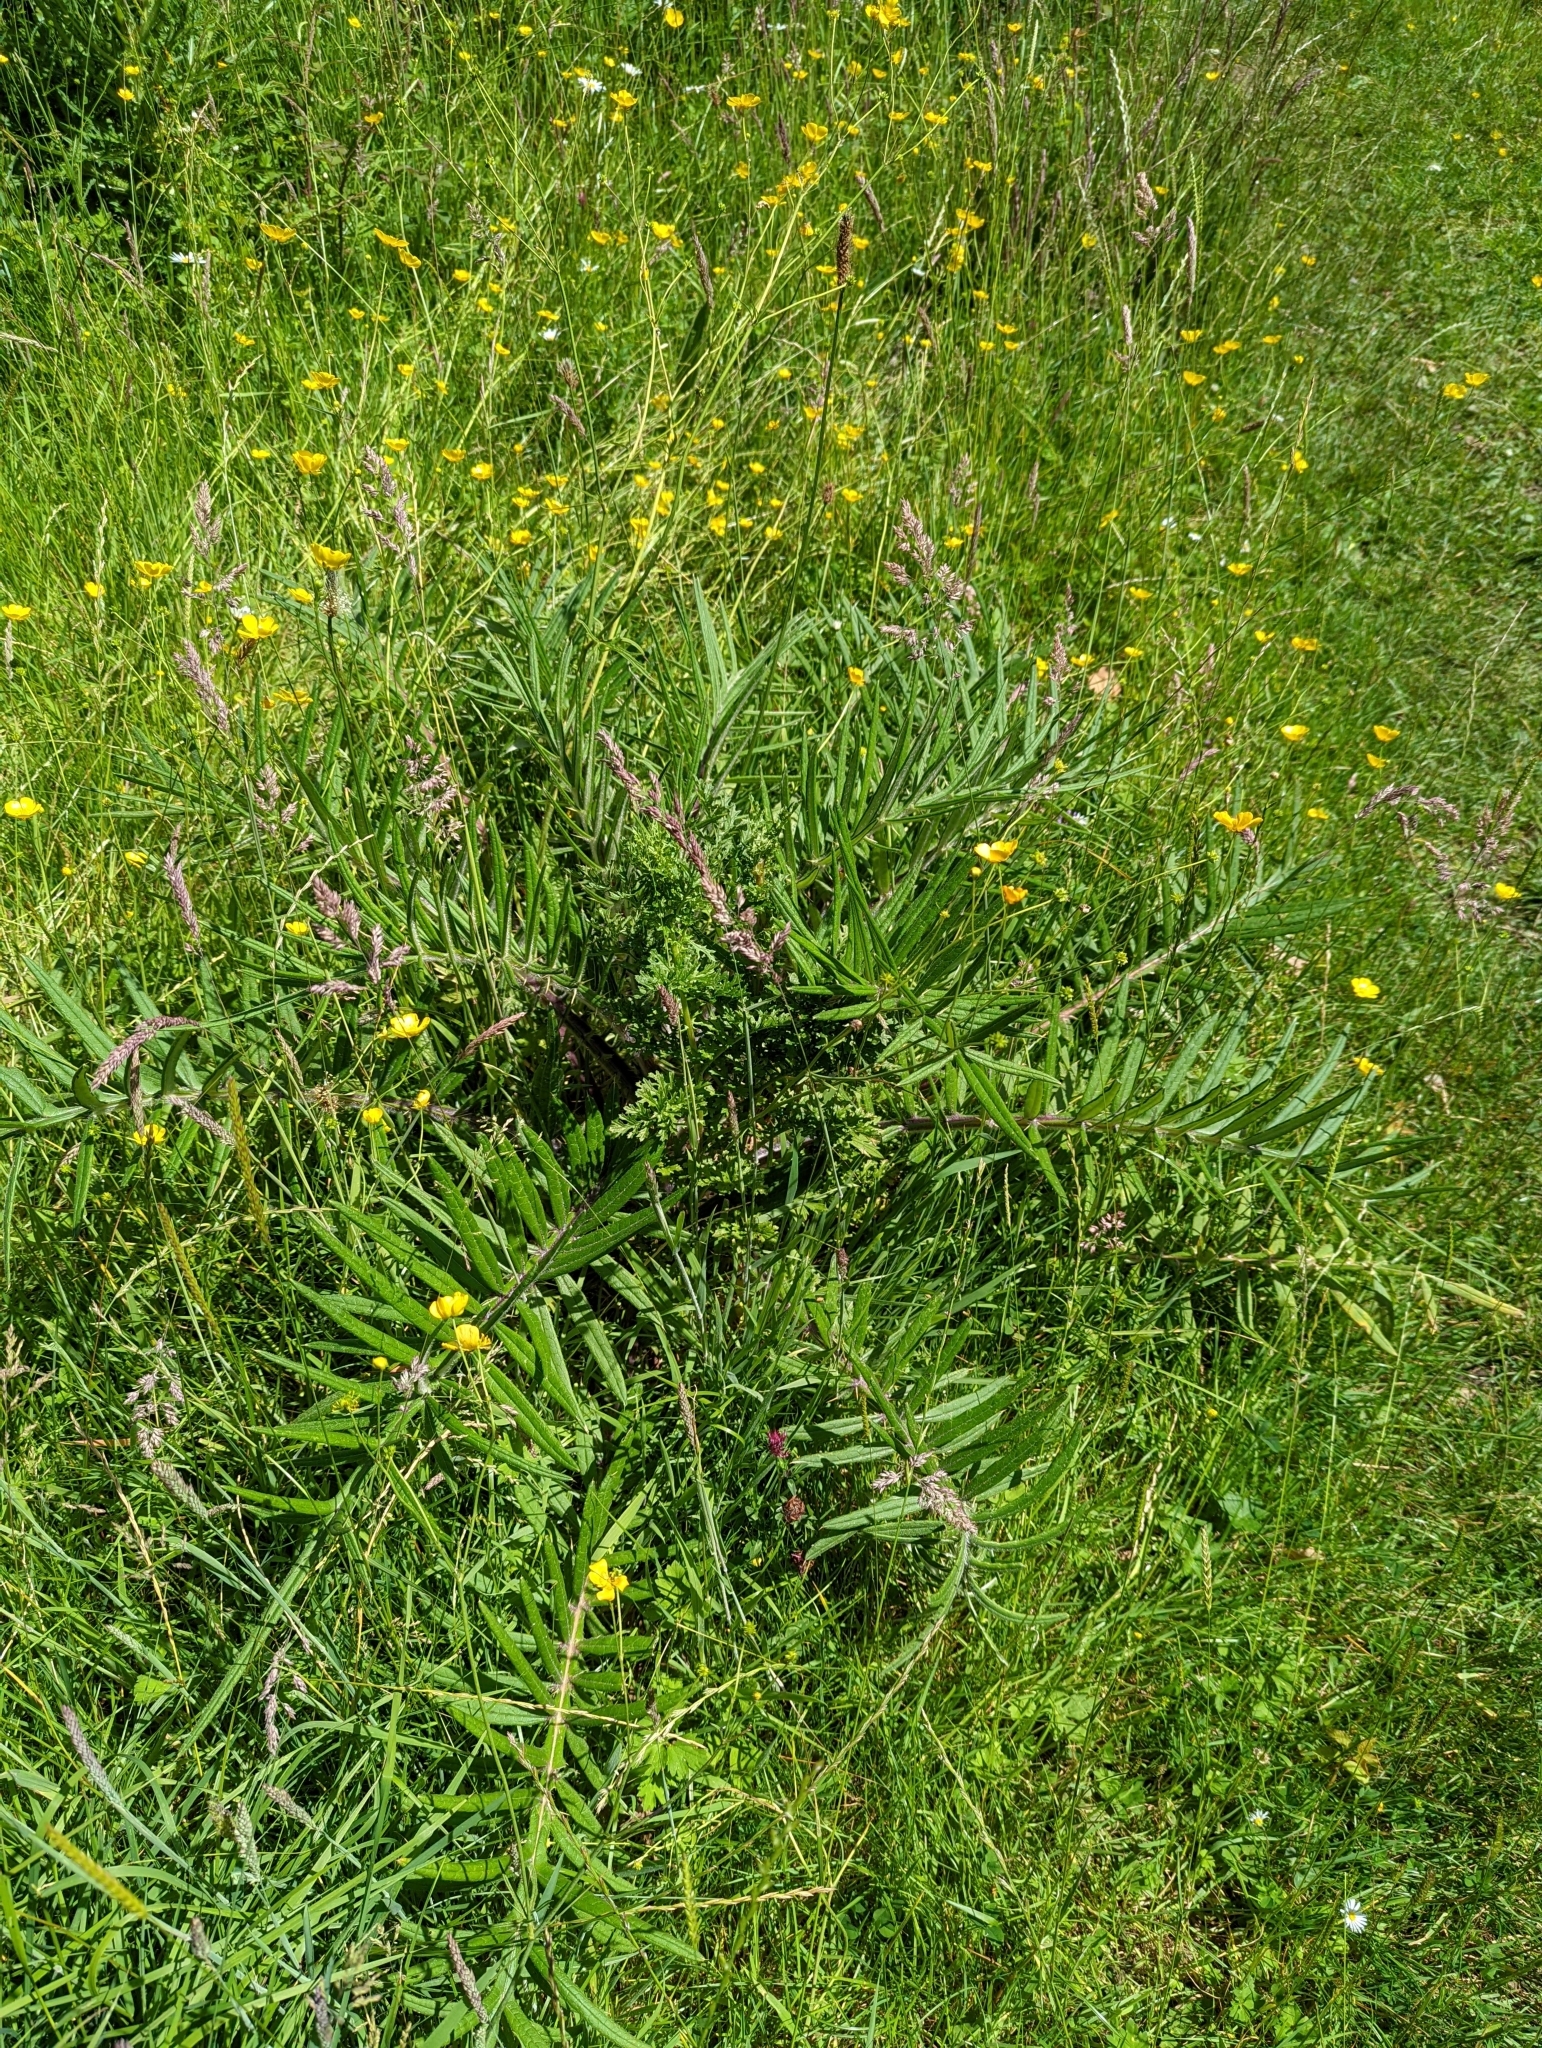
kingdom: Plantae
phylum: Tracheophyta
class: Magnoliopsida
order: Asterales
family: Asteraceae
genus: Lophiolepis
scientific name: Lophiolepis eriophora
